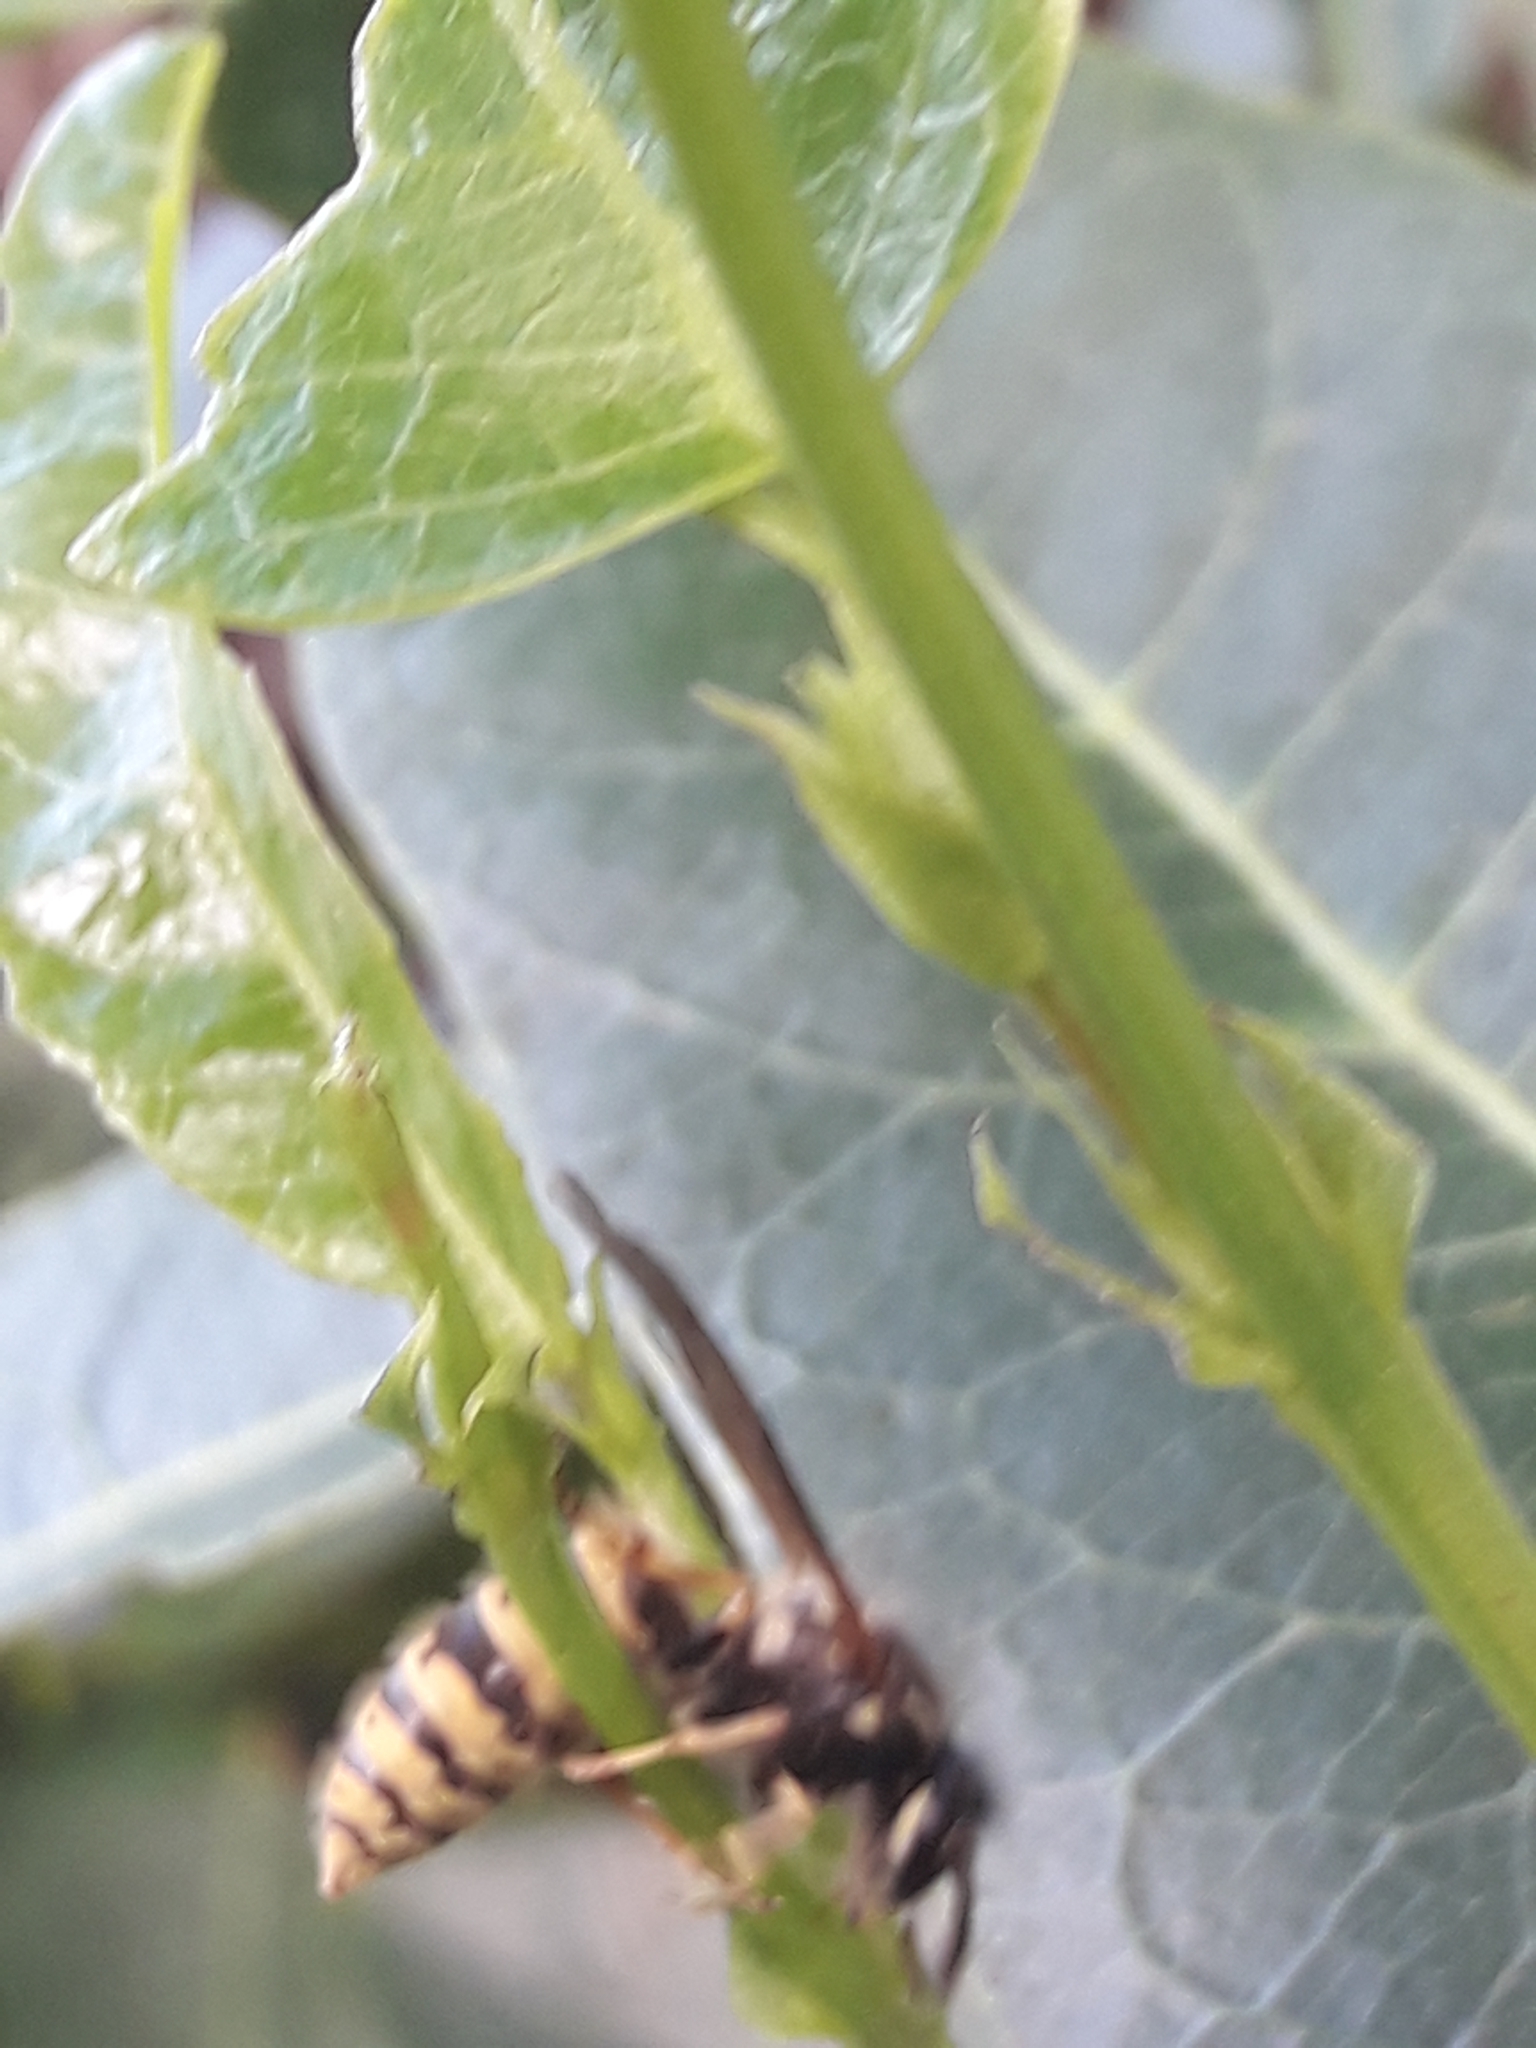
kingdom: Animalia
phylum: Arthropoda
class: Insecta
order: Hymenoptera
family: Vespidae
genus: Vespula
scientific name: Vespula vulgaris
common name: Common wasp
